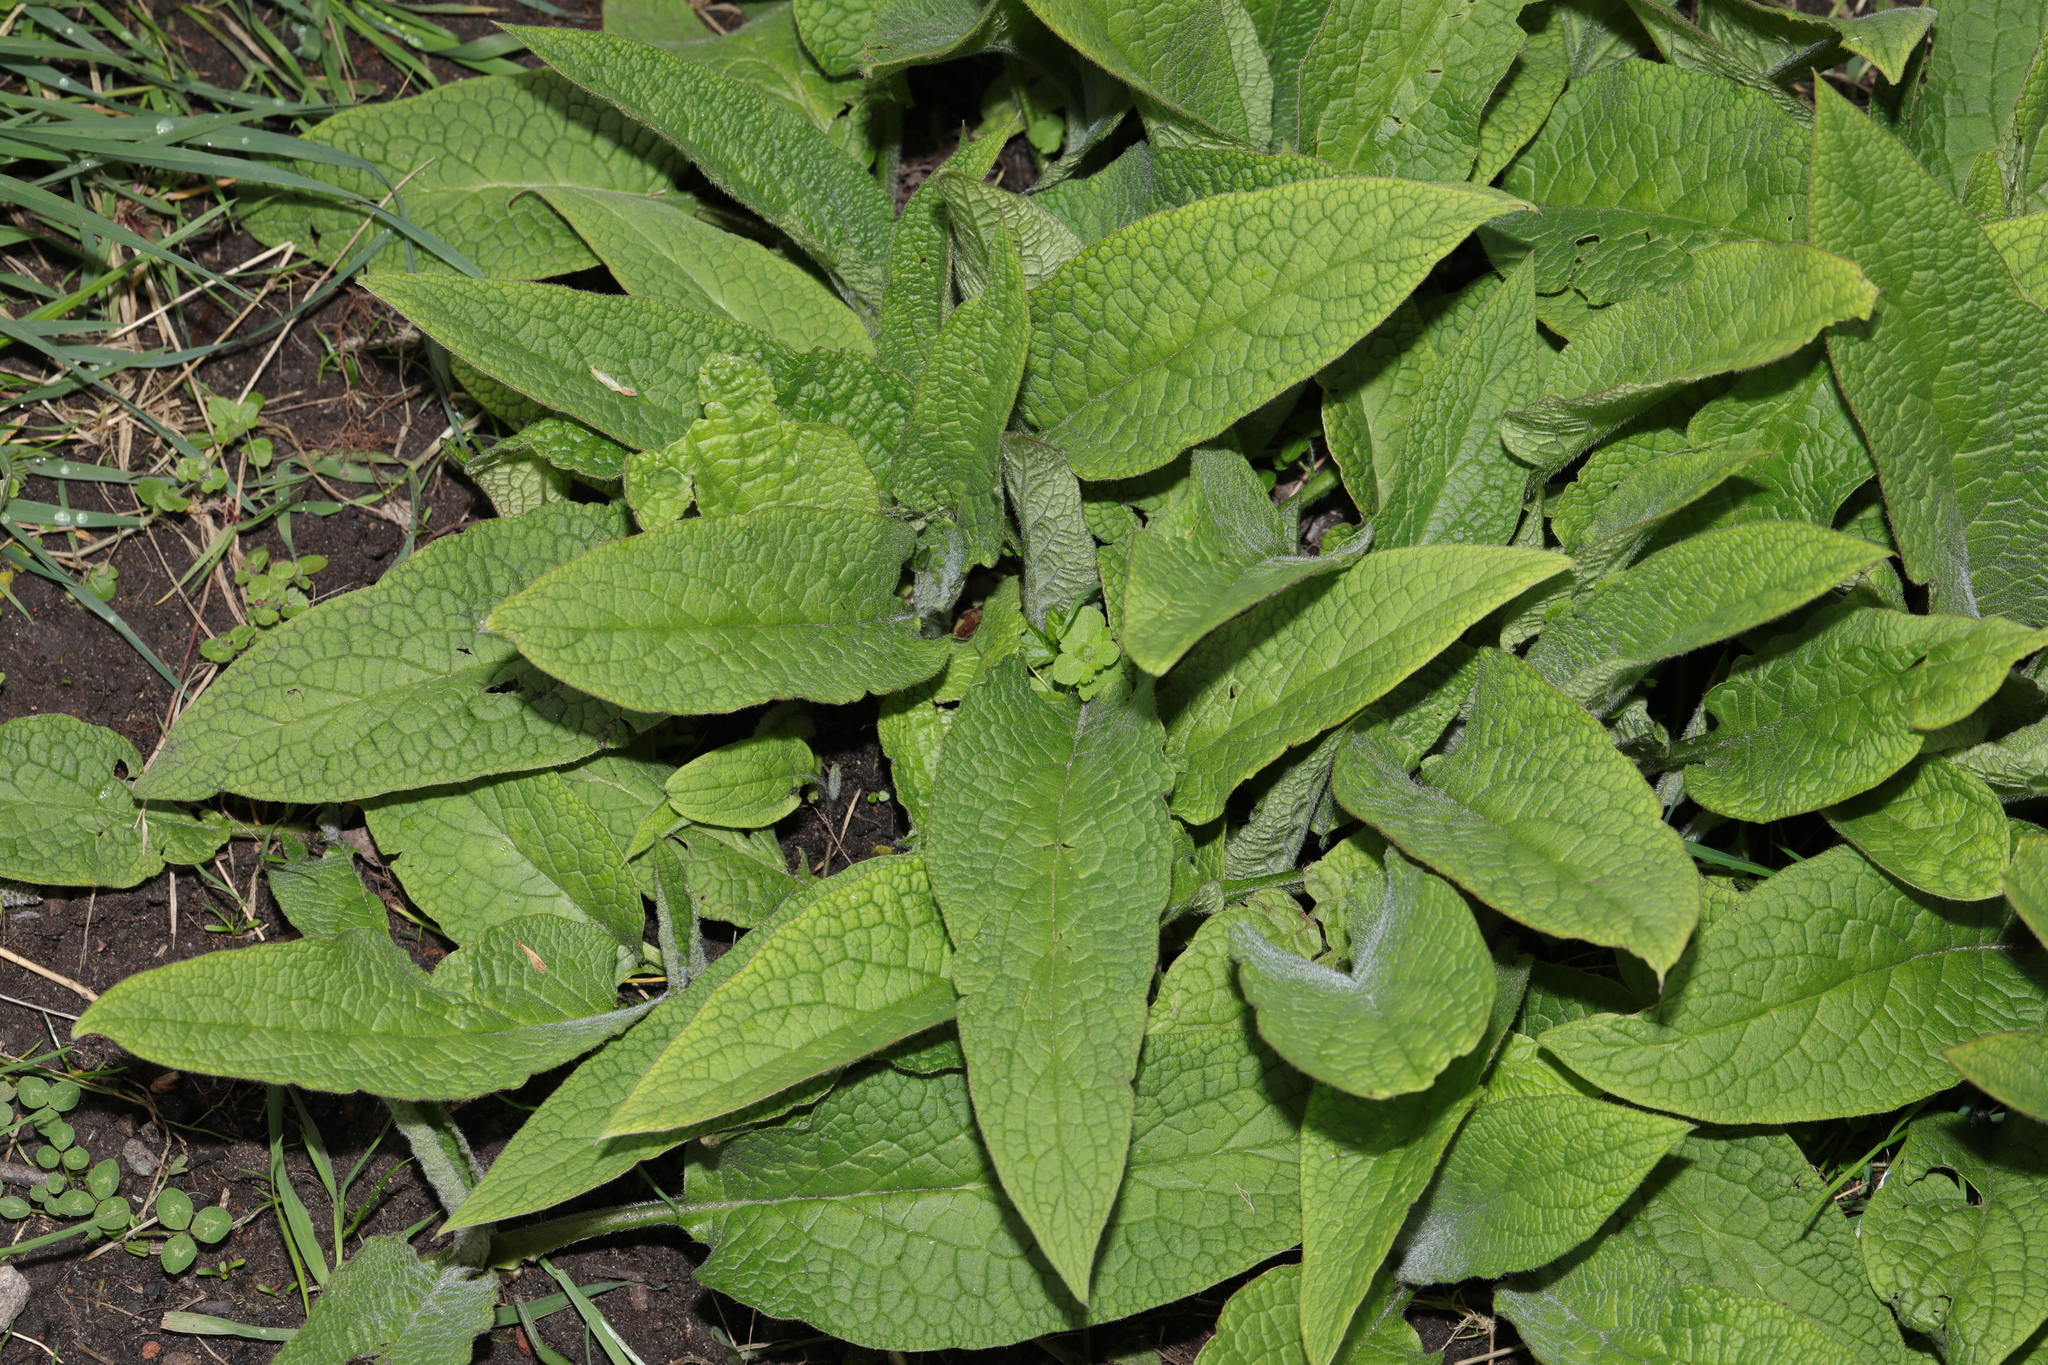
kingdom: Plantae
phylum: Tracheophyta
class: Magnoliopsida
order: Boraginales
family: Boraginaceae
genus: Symphytum
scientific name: Symphytum officinale
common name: Common comfrey
